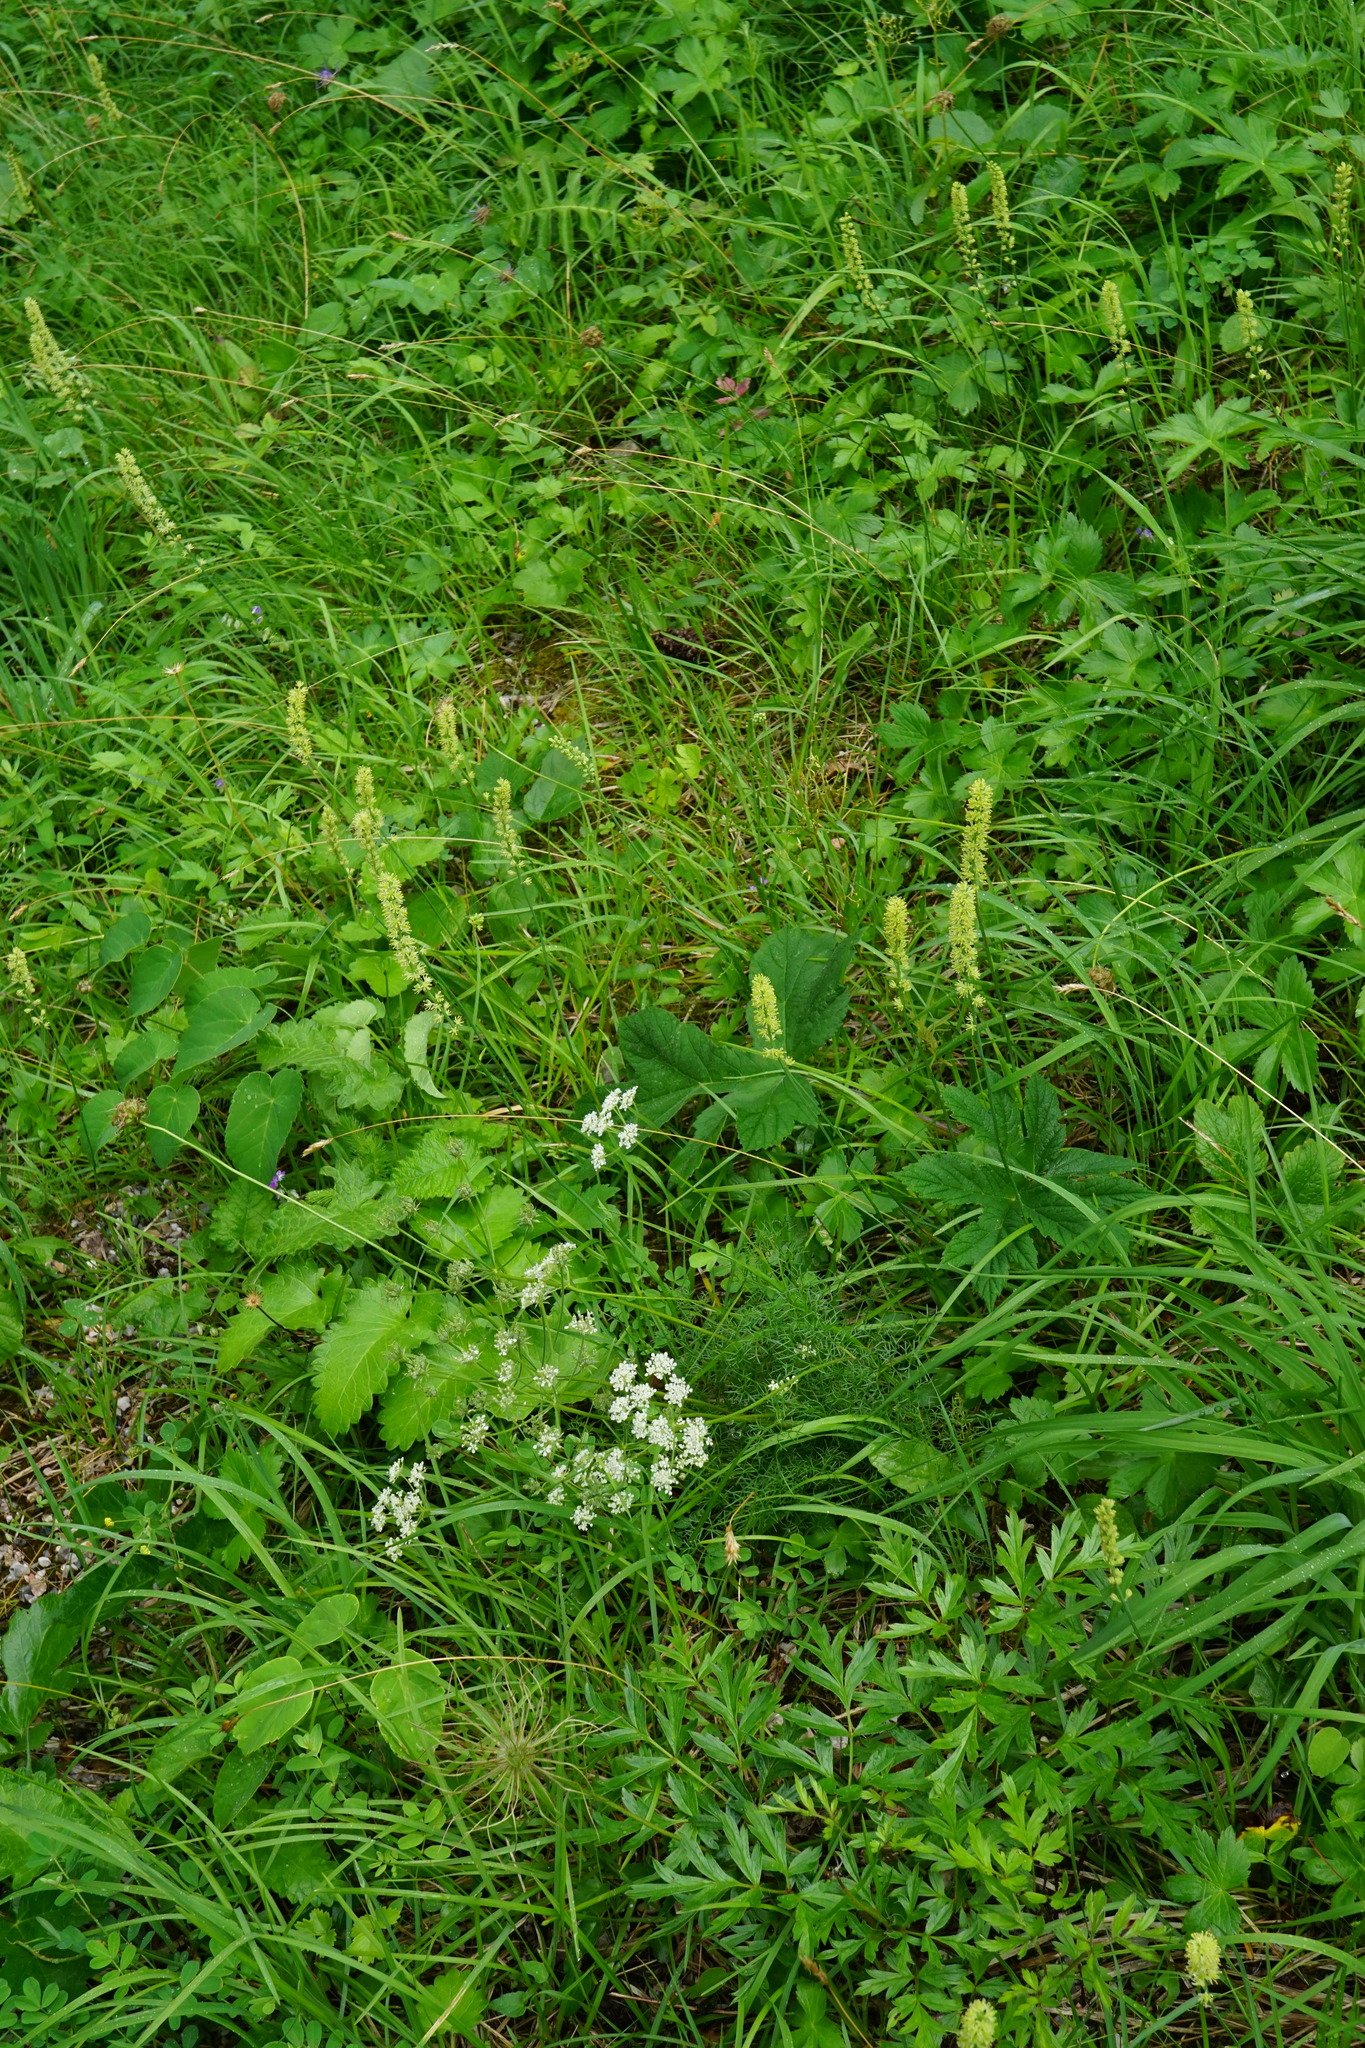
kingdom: Plantae
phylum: Tracheophyta
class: Liliopsida
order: Alismatales
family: Tofieldiaceae
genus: Tofieldia
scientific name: Tofieldia calyculata
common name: German-asphodel
